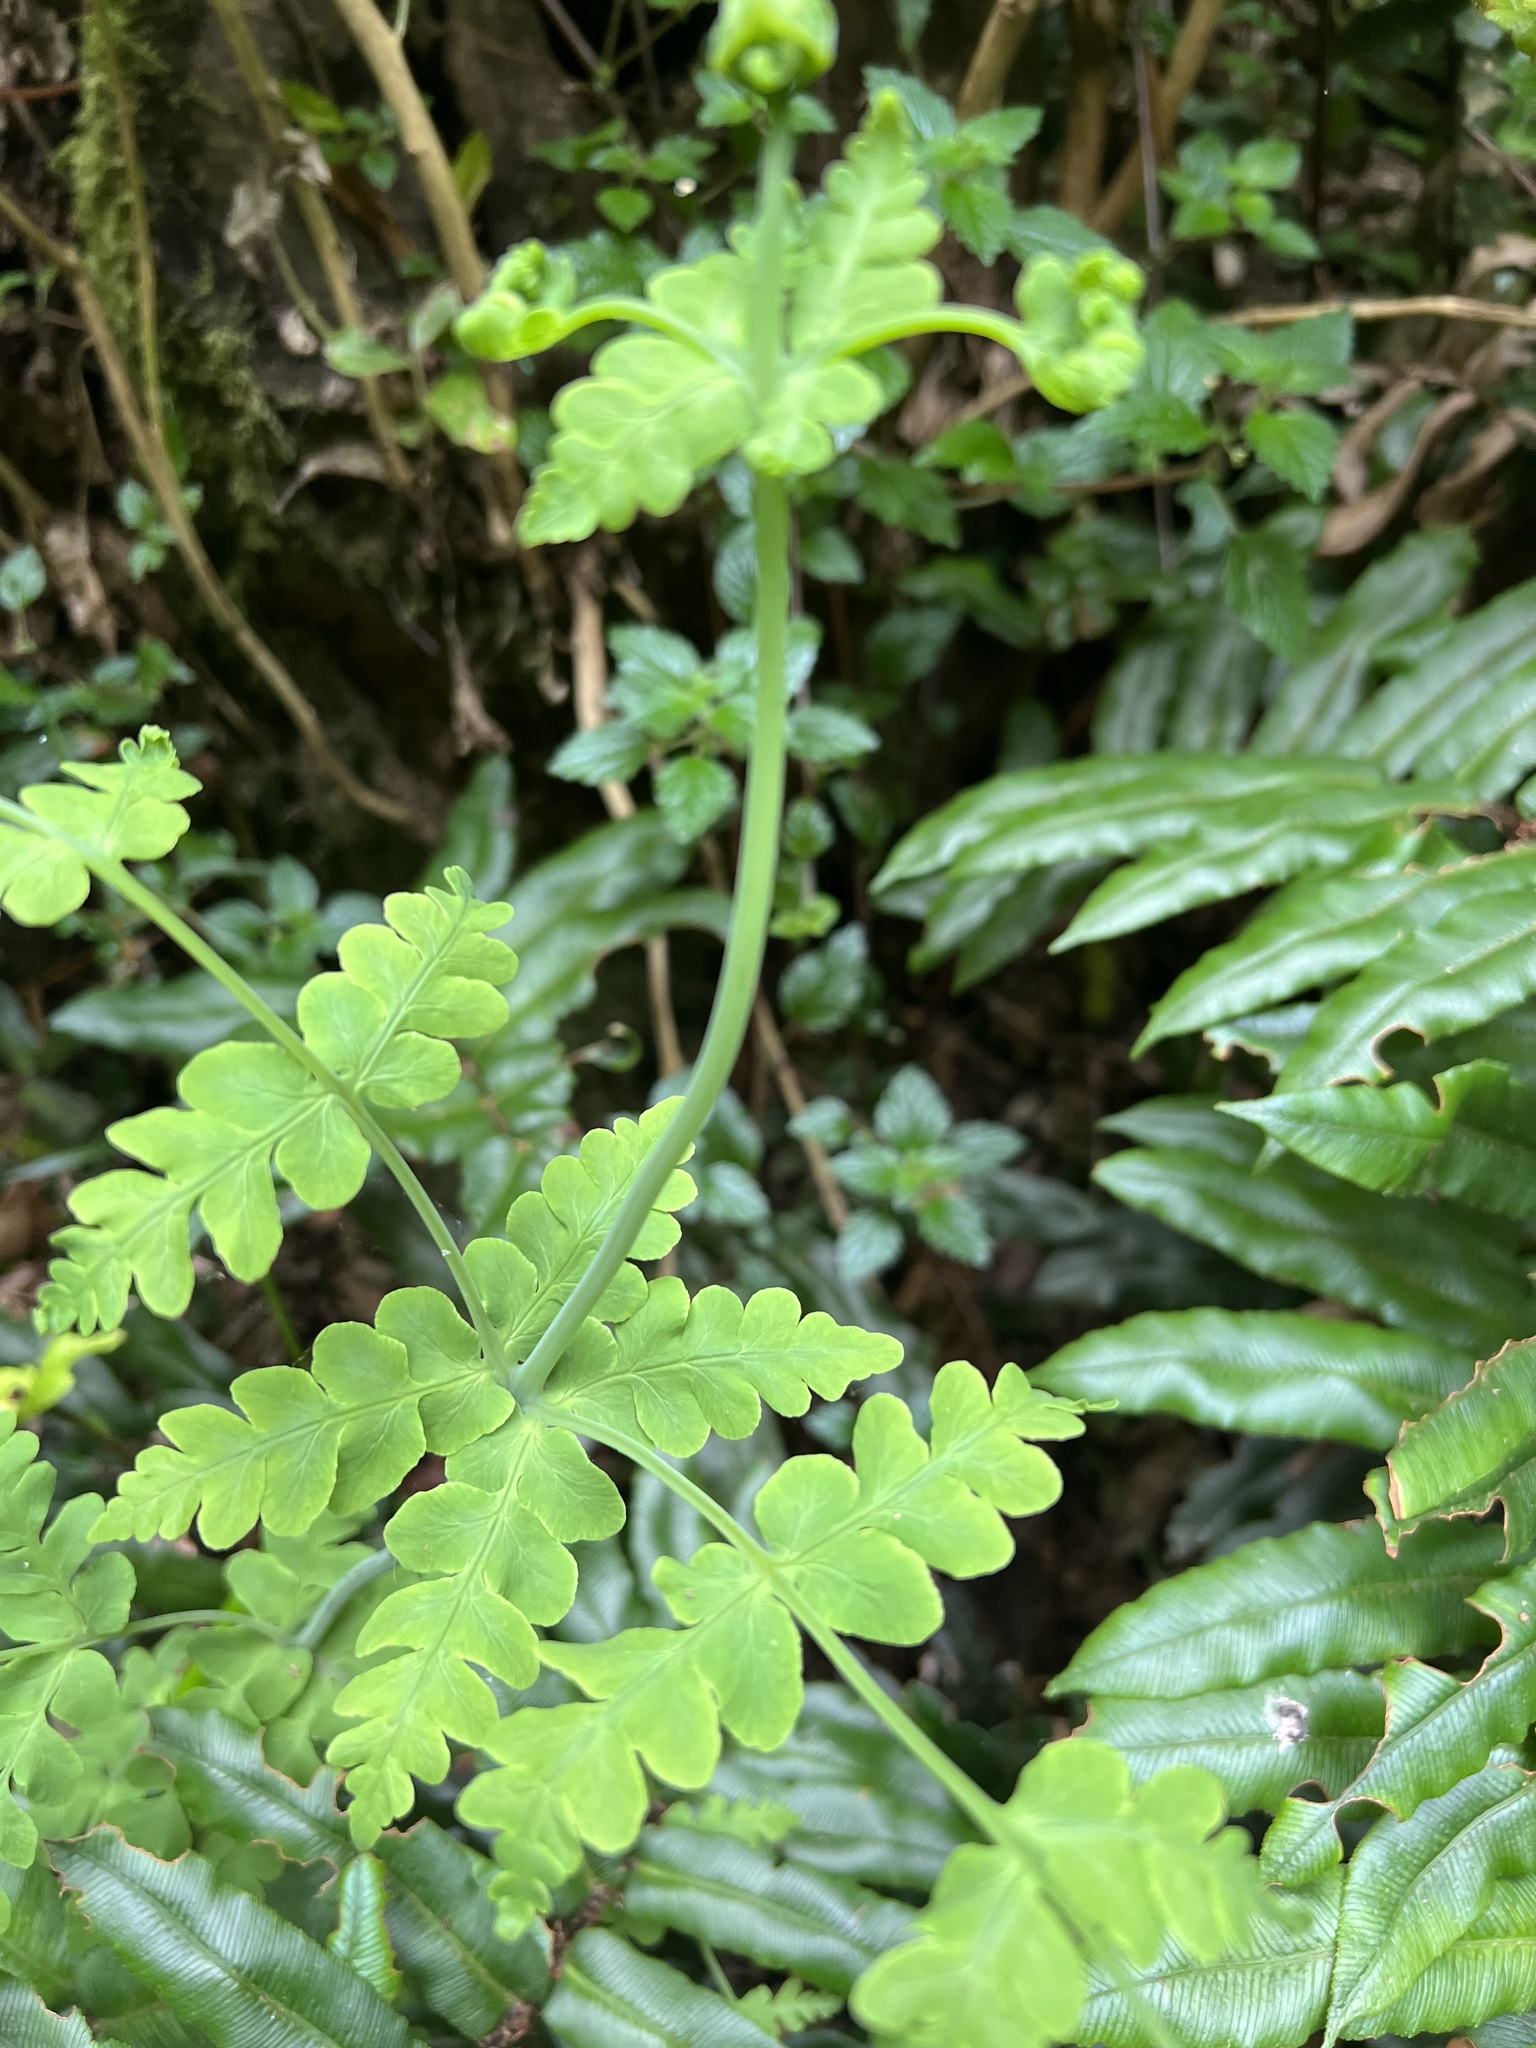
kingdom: Plantae
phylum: Tracheophyta
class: Polypodiopsida
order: Polypodiales
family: Dennstaedtiaceae
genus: Histiopteris
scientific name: Histiopteris incisa
